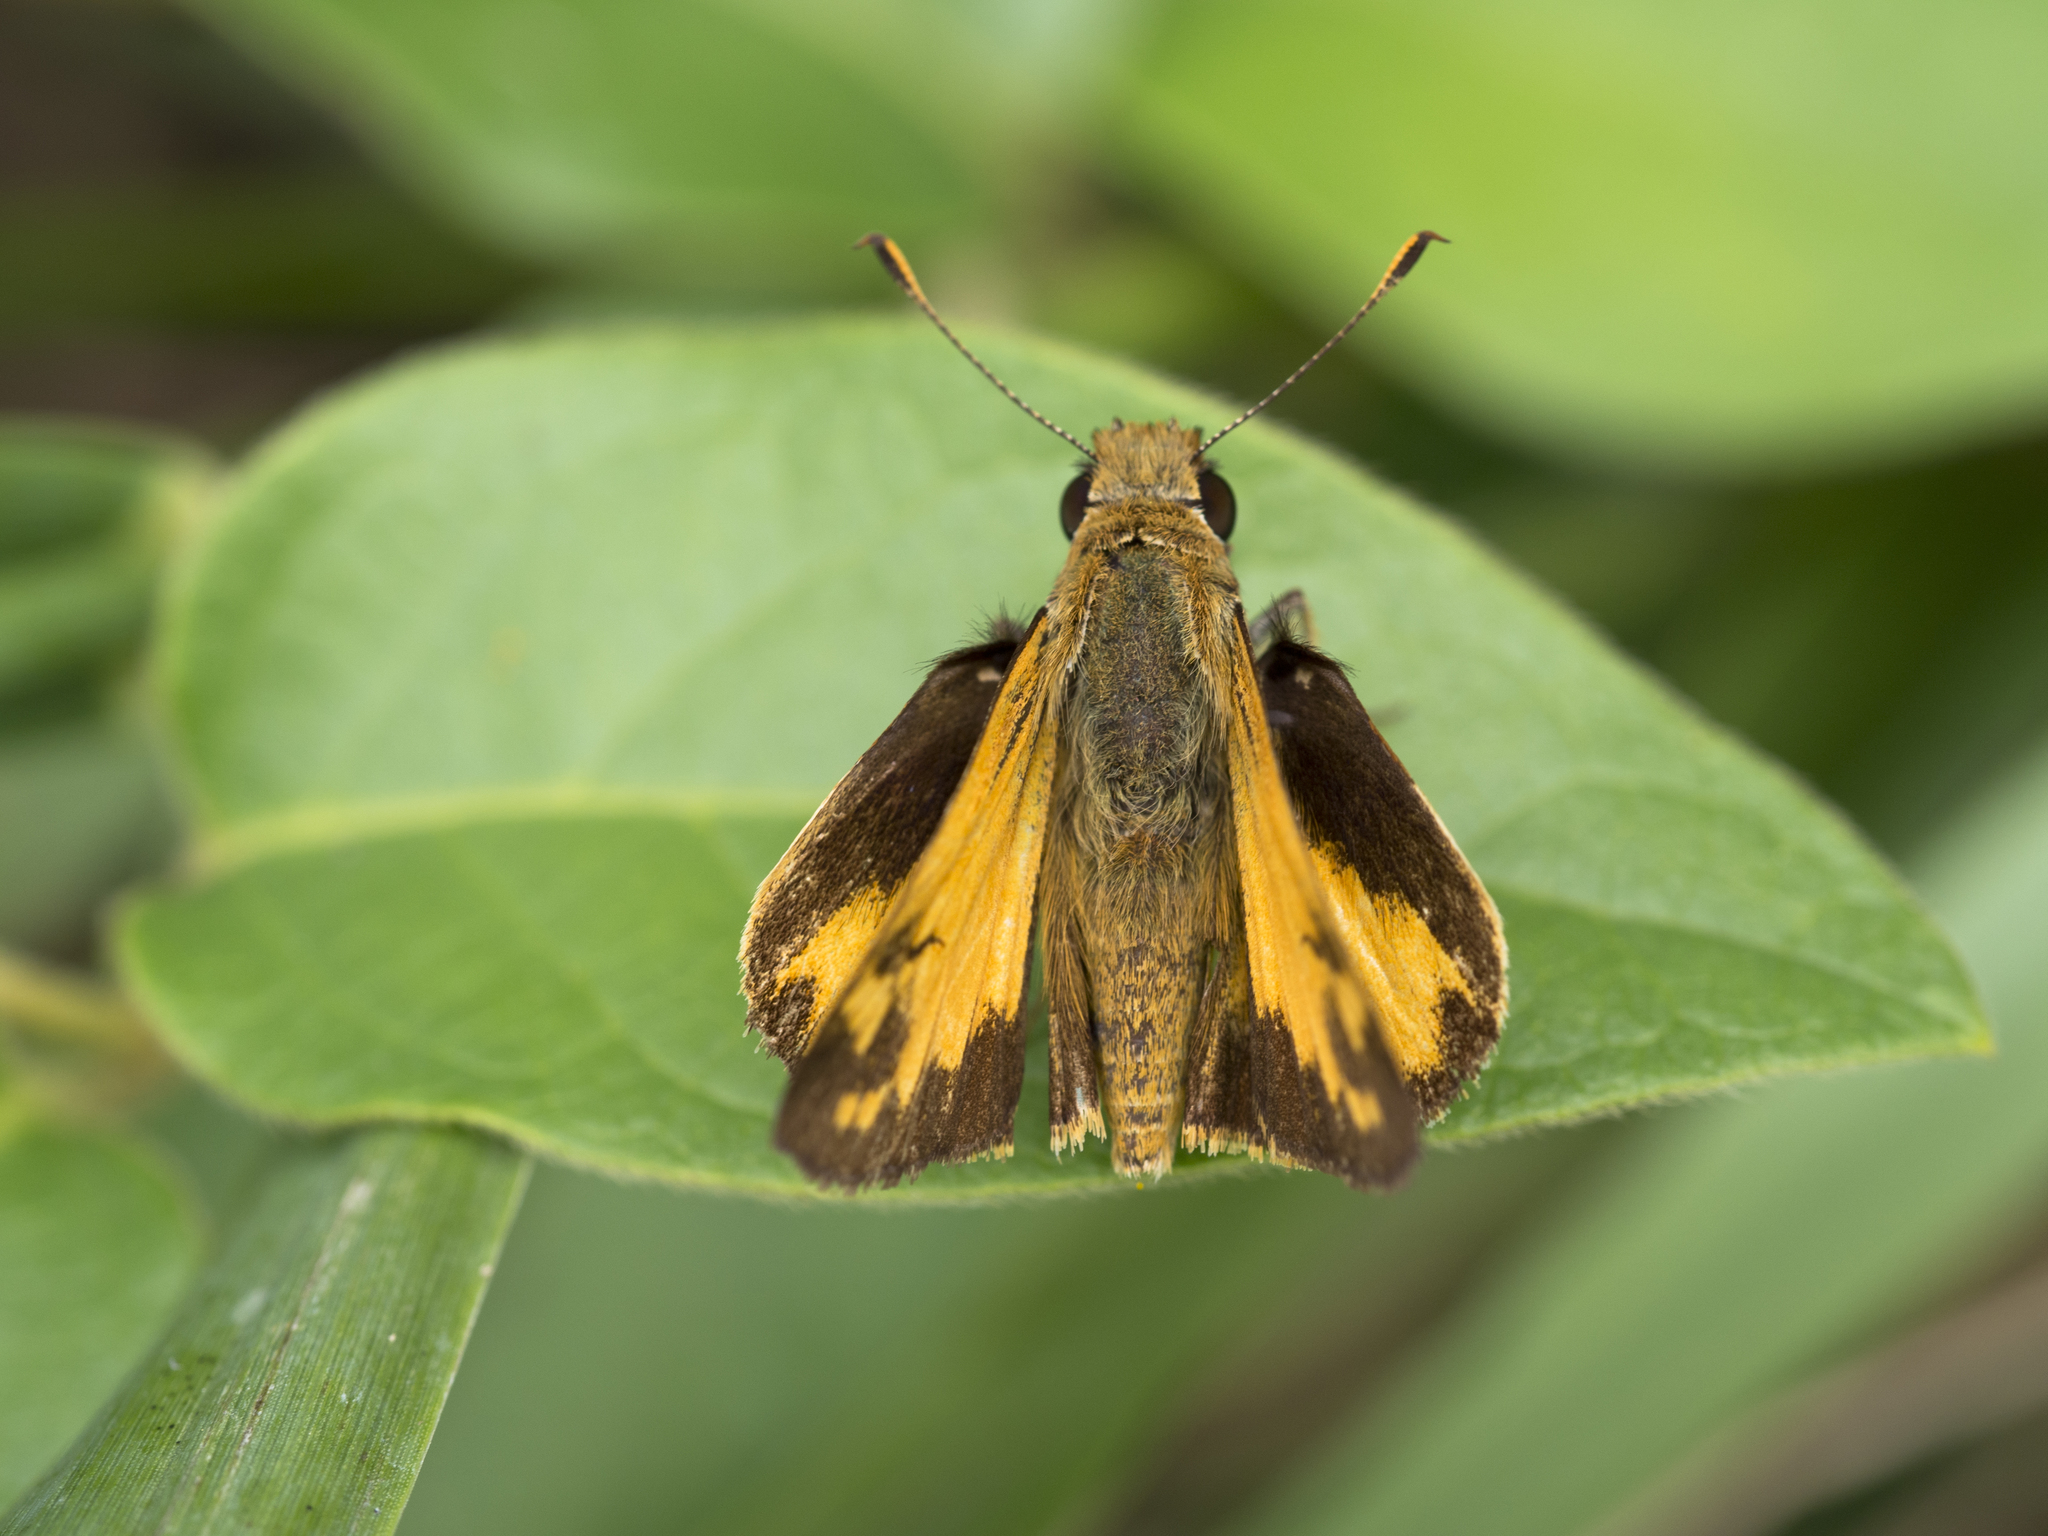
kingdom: Animalia
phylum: Arthropoda
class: Insecta
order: Lepidoptera
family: Hesperiidae
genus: Lon
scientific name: Lon zabulon
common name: Zabulon skipper
